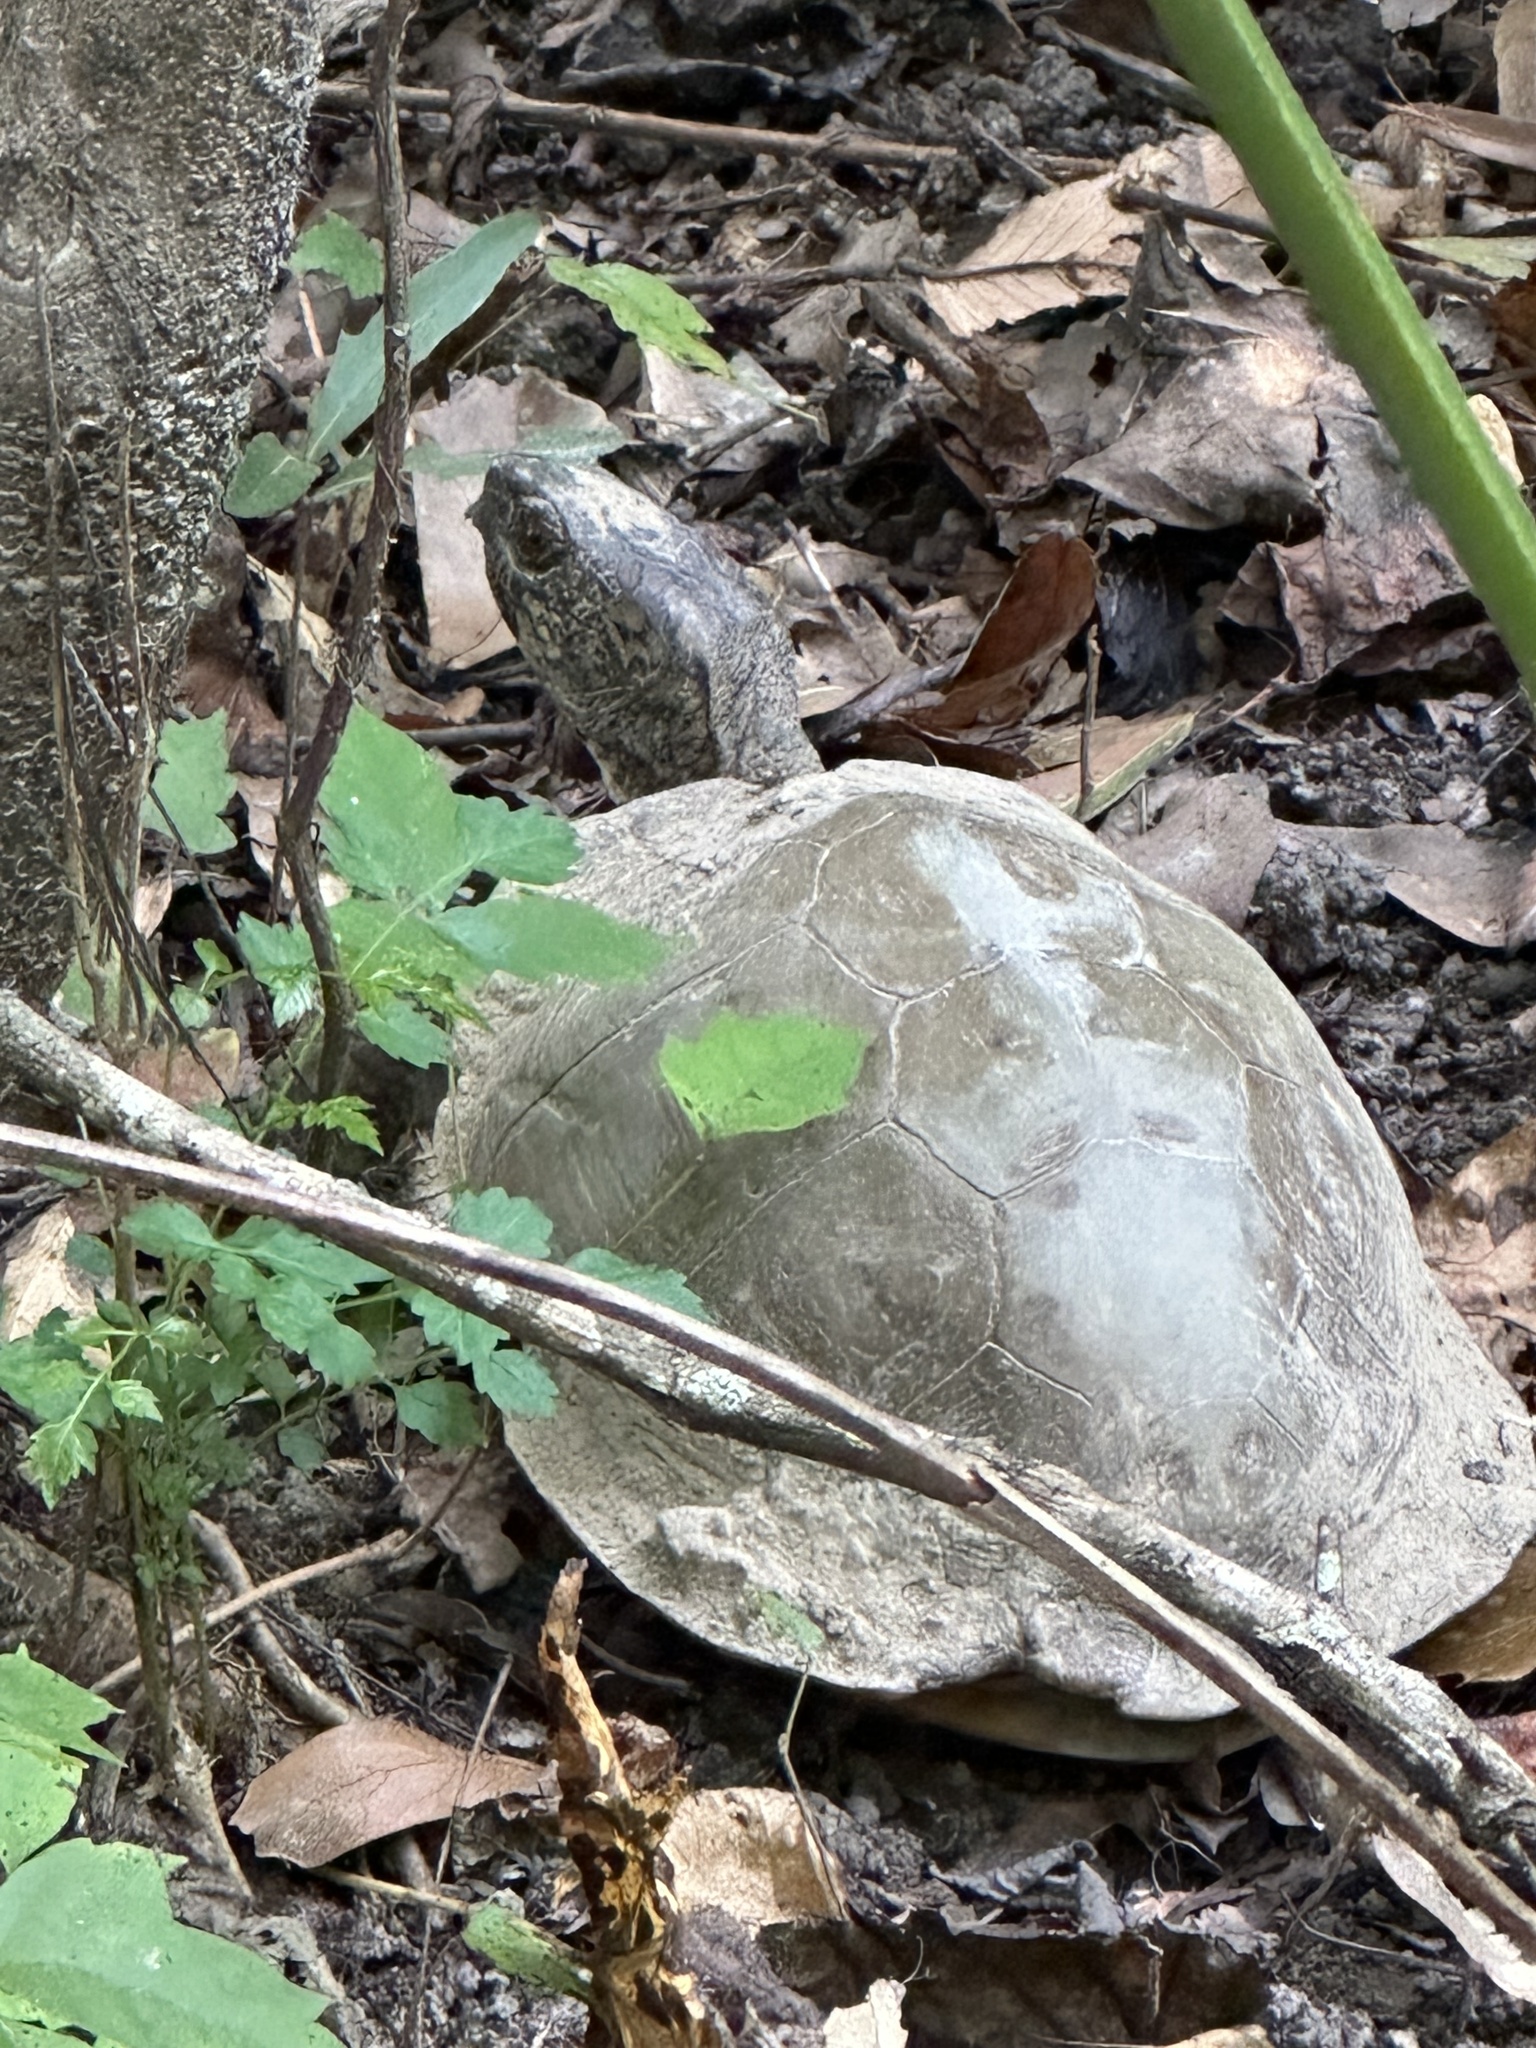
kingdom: Animalia
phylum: Chordata
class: Testudines
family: Emydidae
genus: Terrapene
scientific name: Terrapene carolina
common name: Common box turtle
